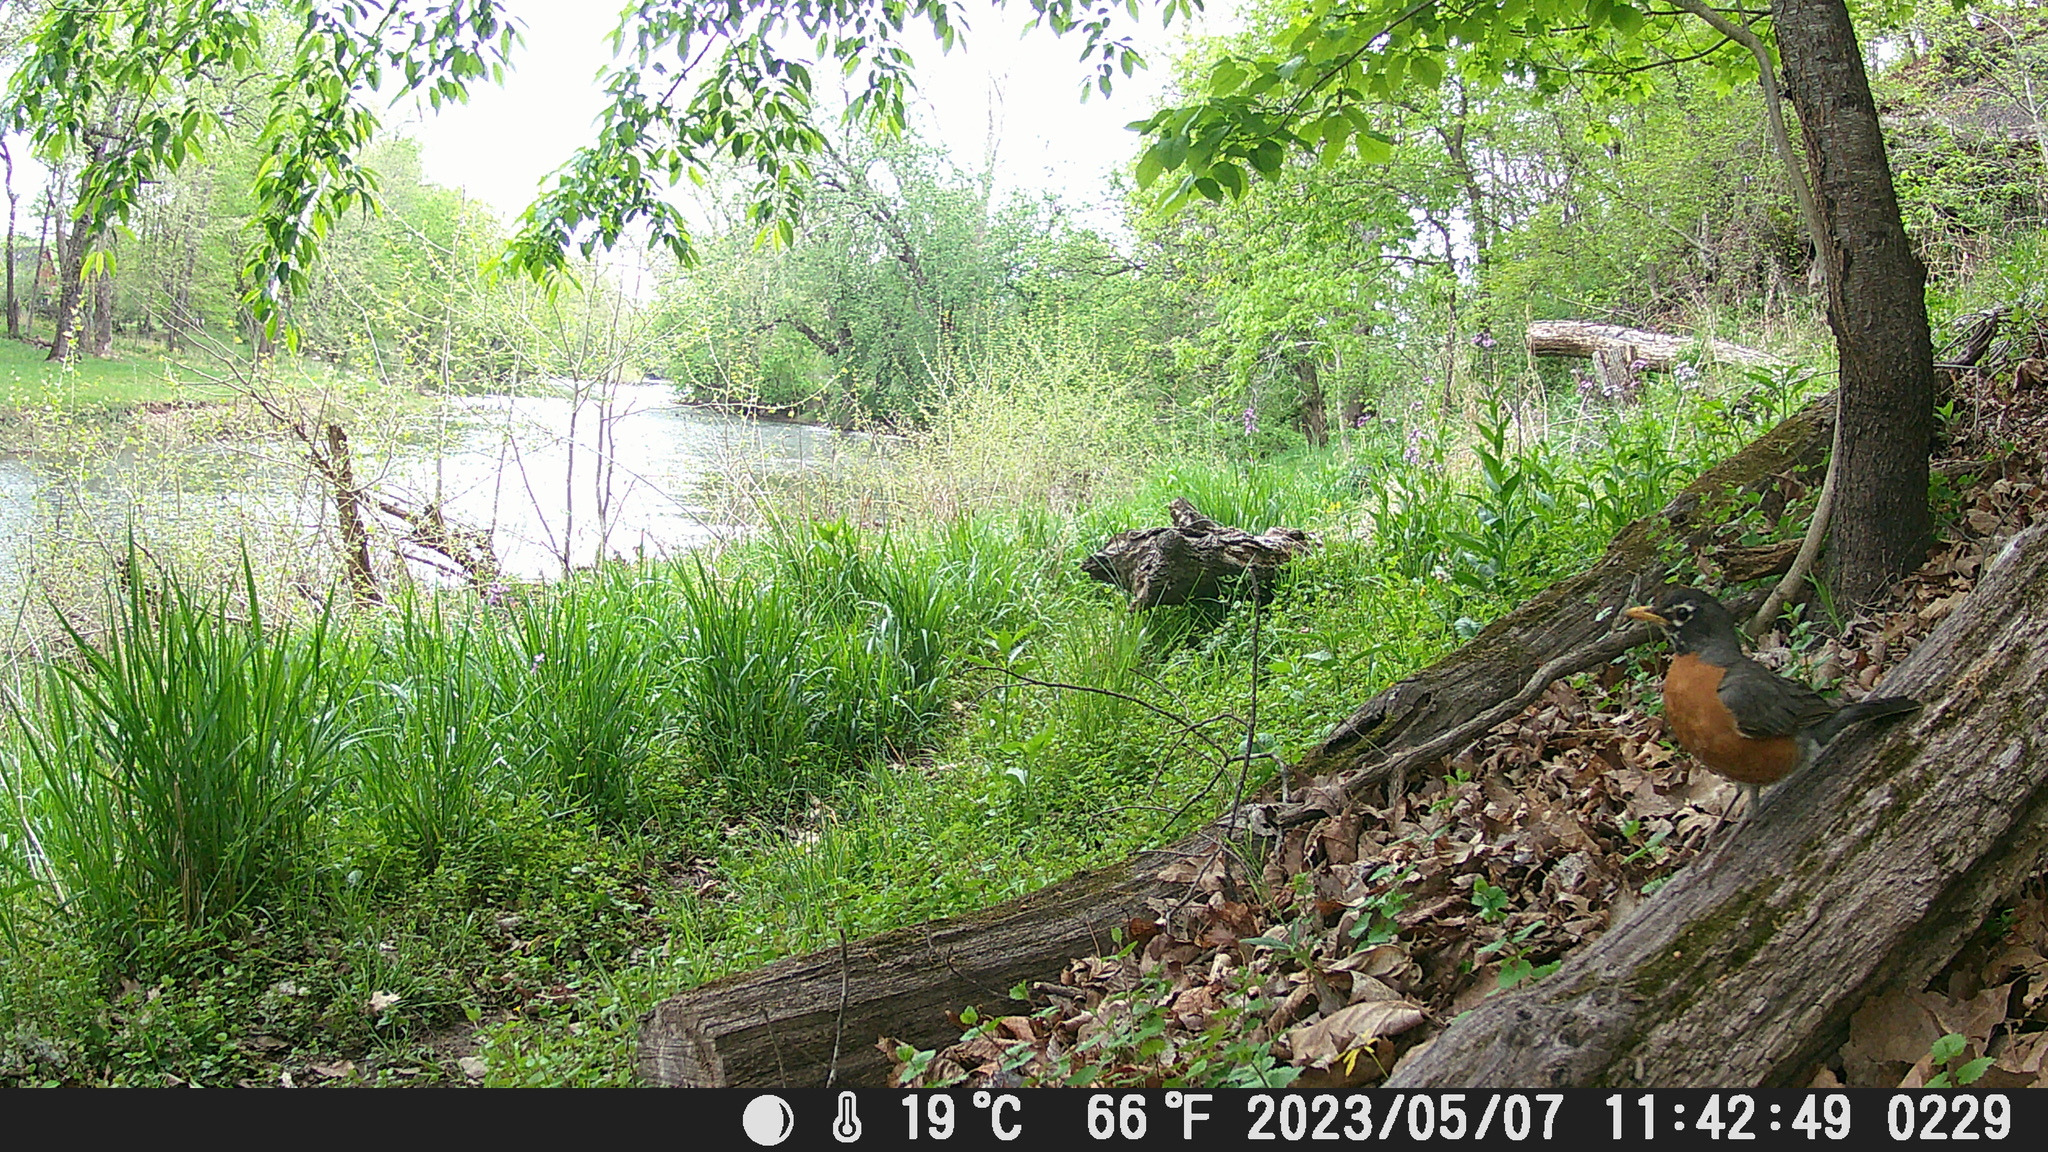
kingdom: Animalia
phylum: Chordata
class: Aves
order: Passeriformes
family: Turdidae
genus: Turdus
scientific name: Turdus migratorius
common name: American robin
